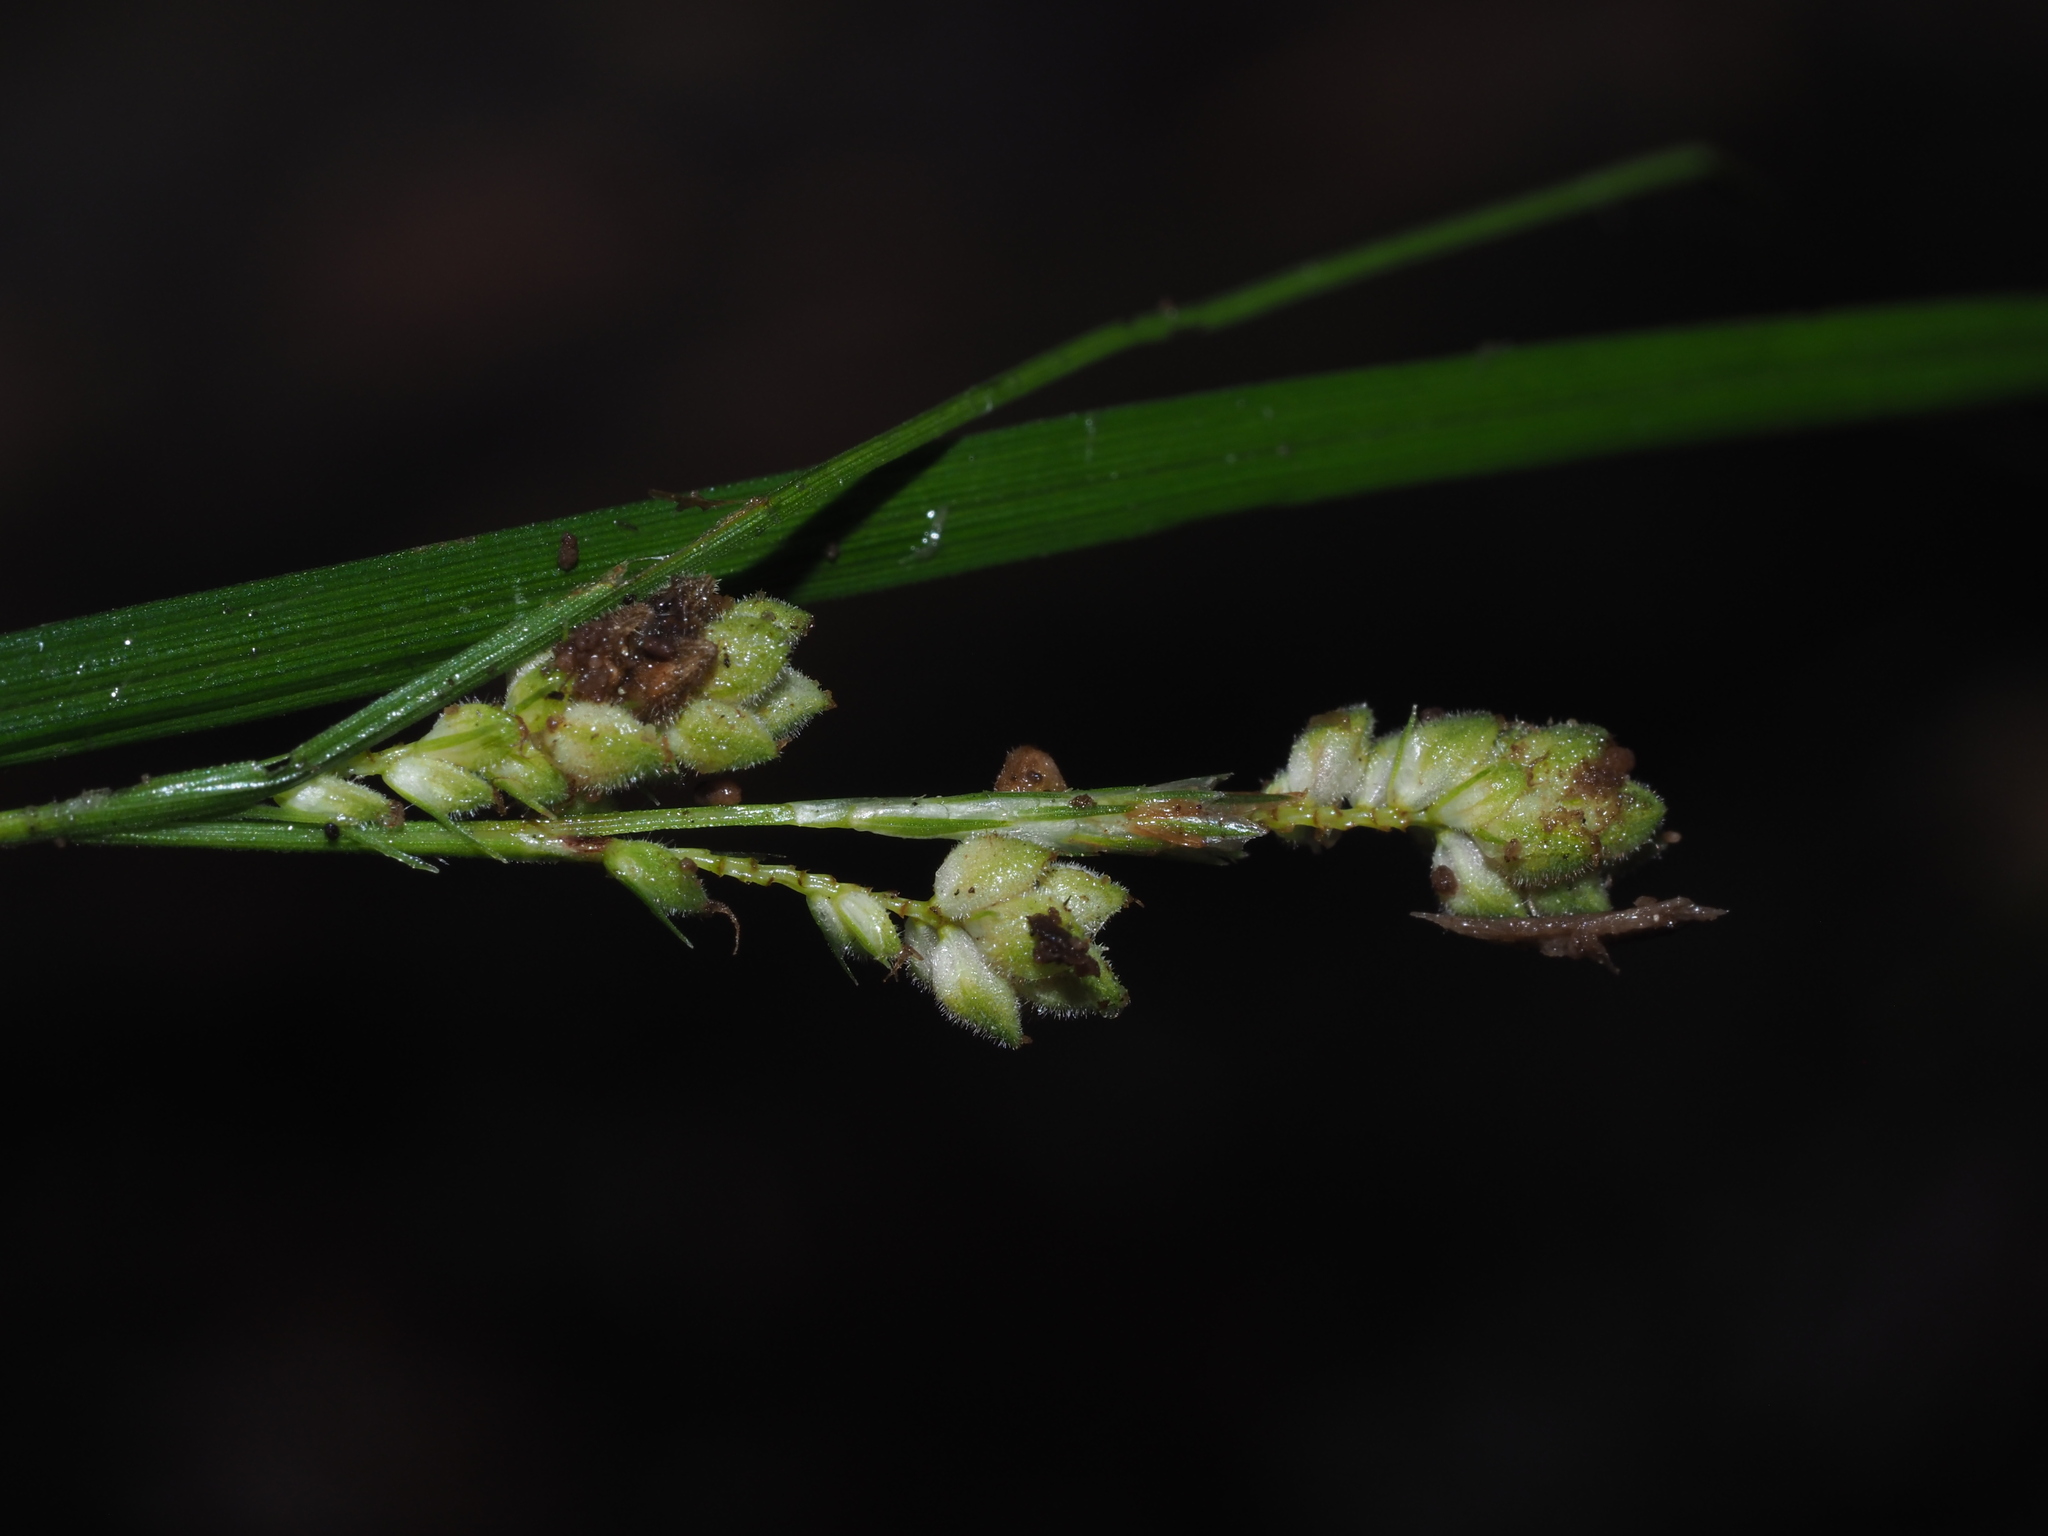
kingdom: Plantae
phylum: Tracheophyta
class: Liliopsida
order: Poales
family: Cyperaceae
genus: Carex
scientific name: Carex swanii
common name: Downy green sedge
